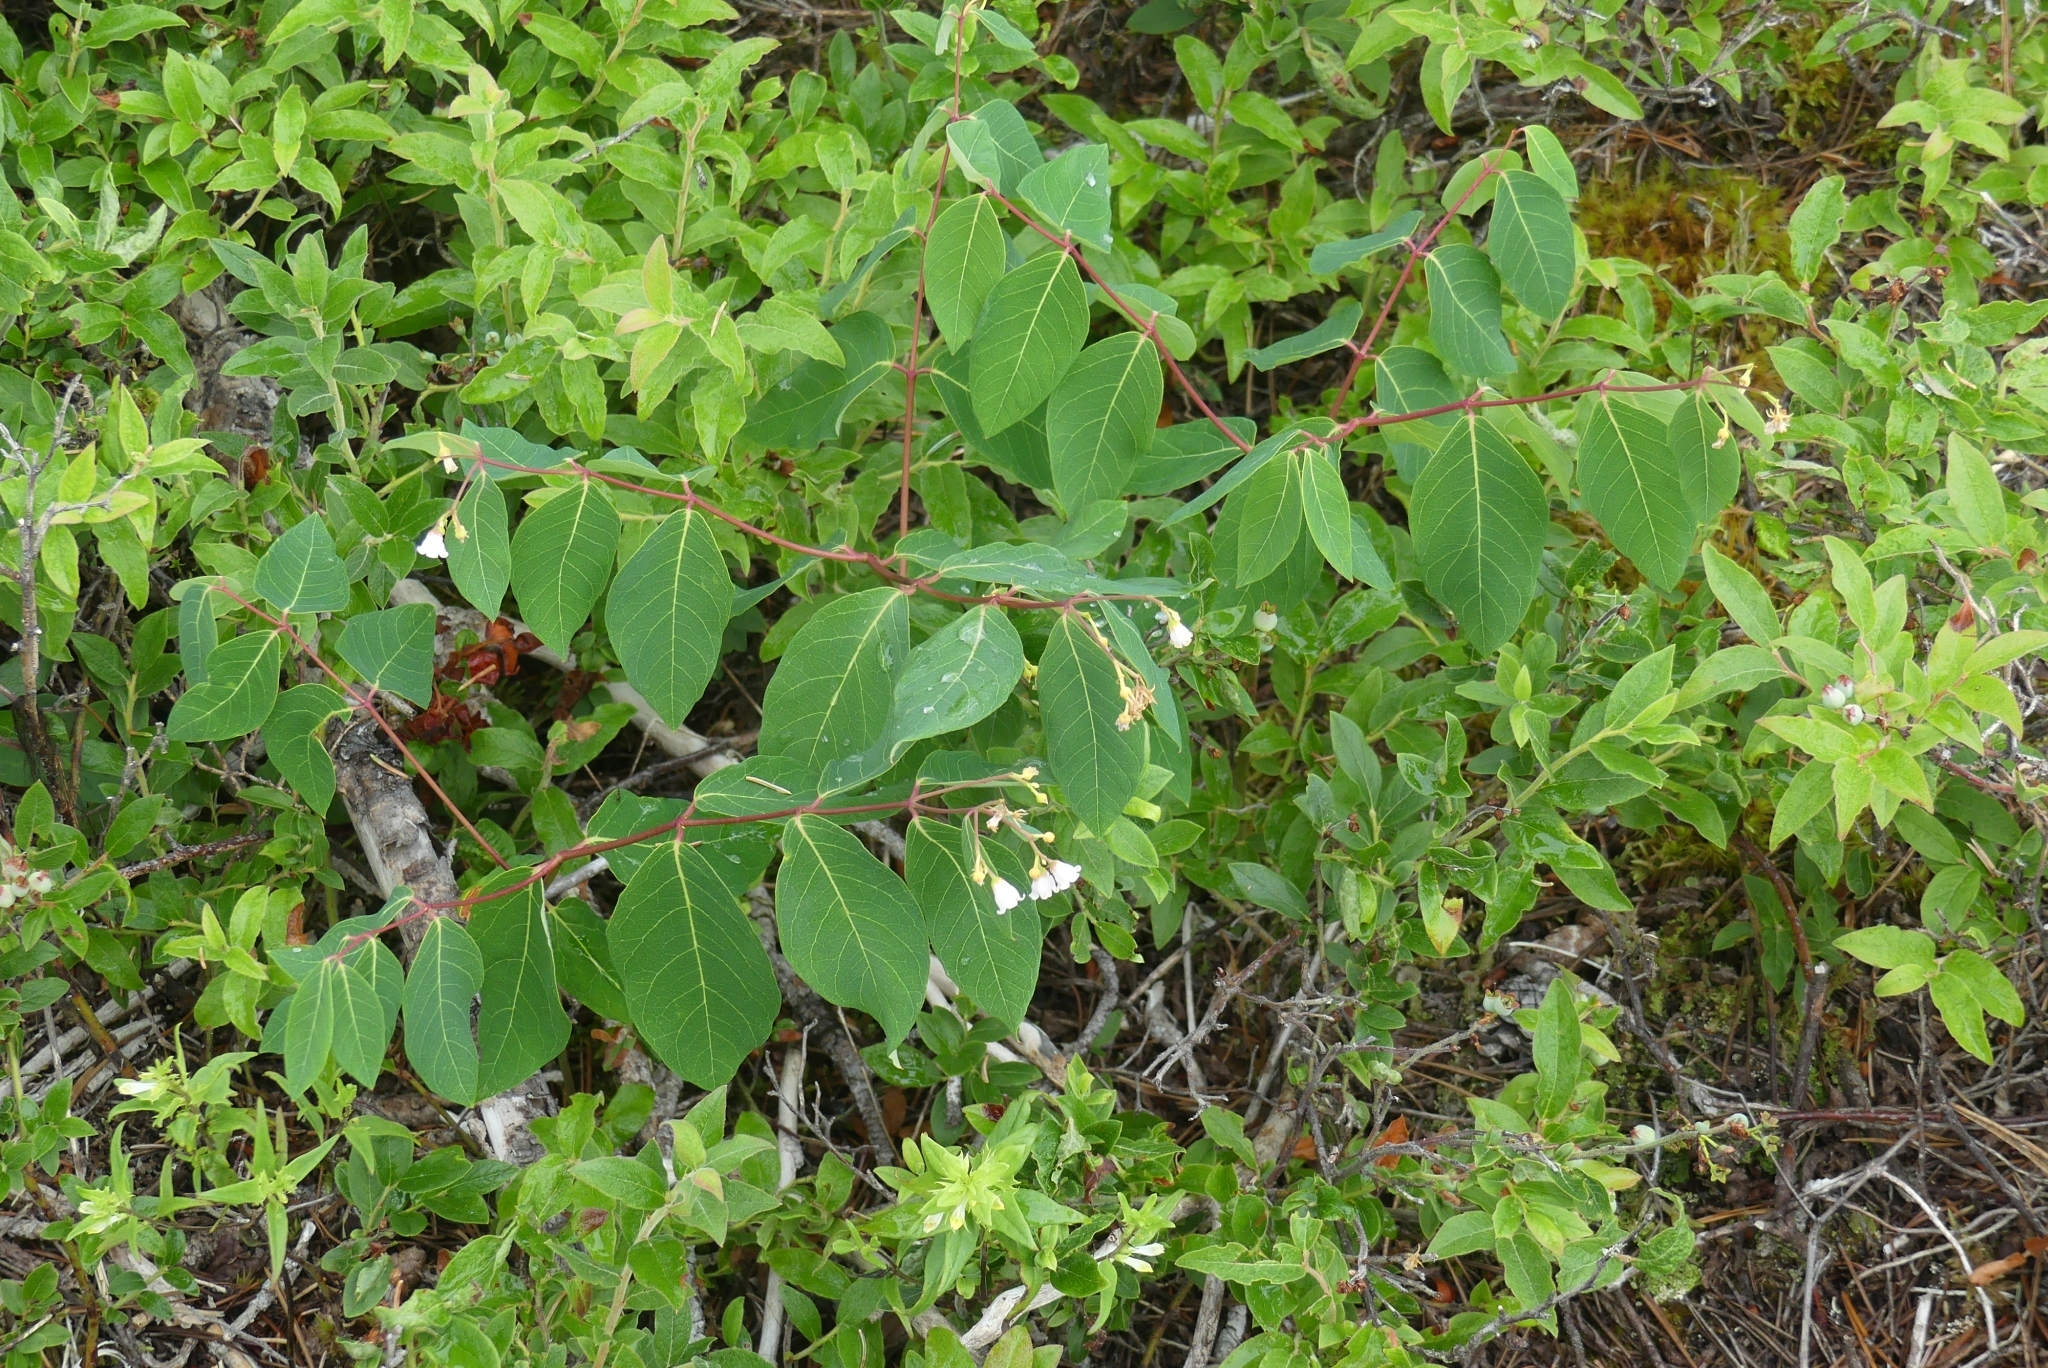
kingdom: Plantae
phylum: Tracheophyta
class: Magnoliopsida
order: Gentianales
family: Apocynaceae
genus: Apocynum
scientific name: Apocynum androsaemifolium
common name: Spreading dogbane
